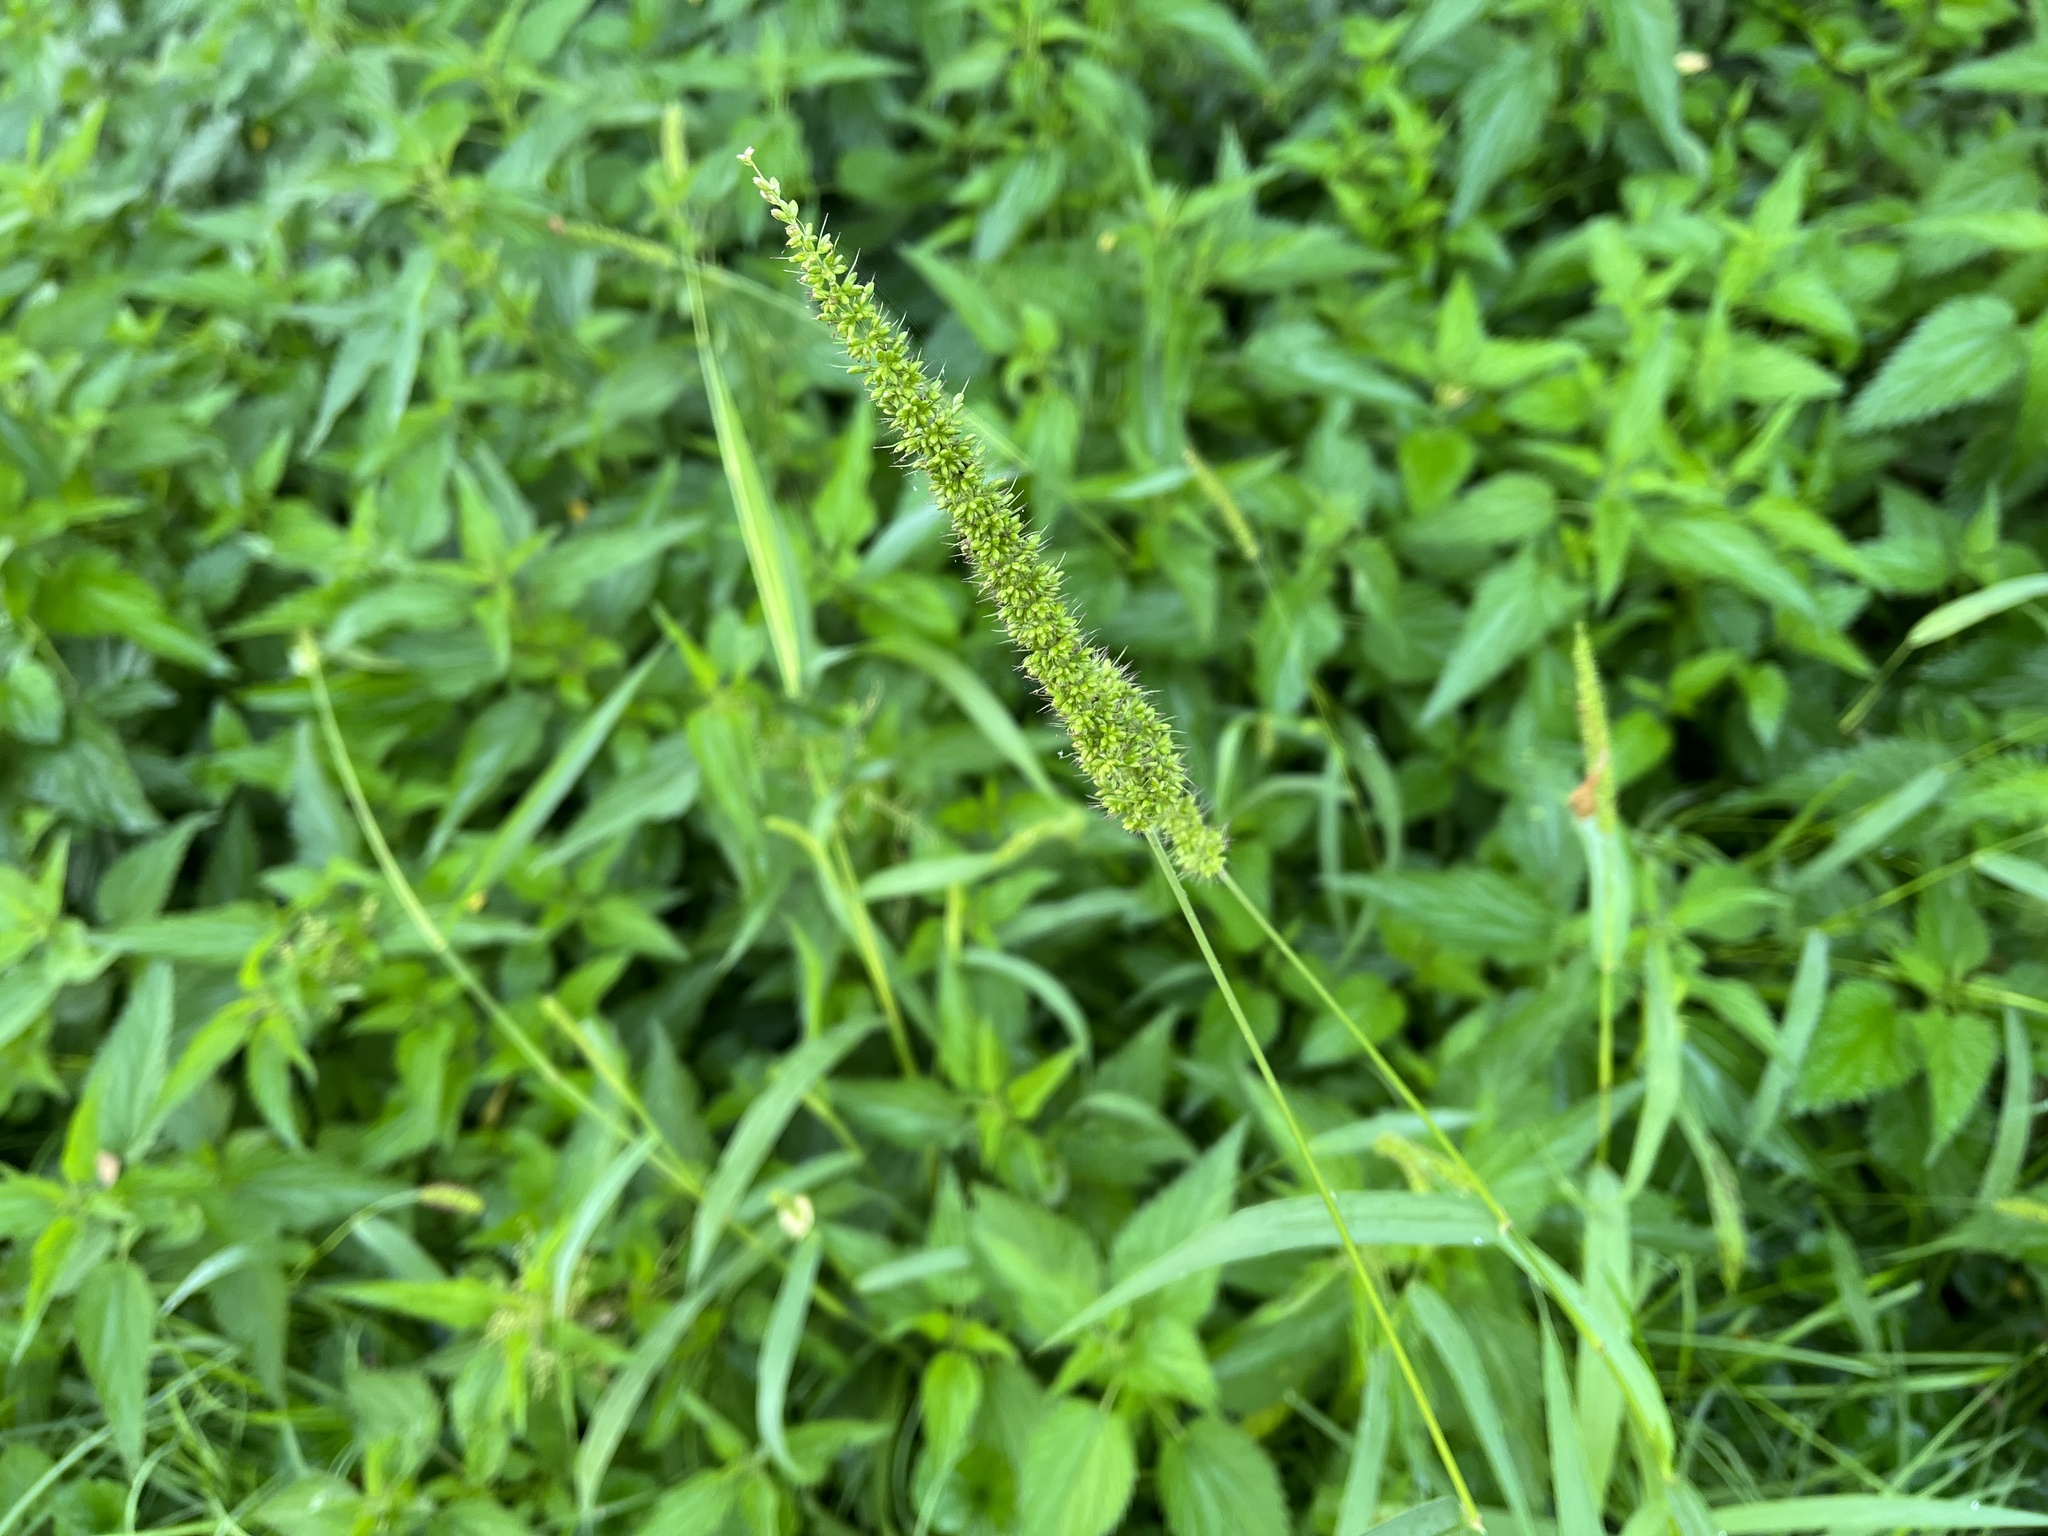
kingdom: Plantae
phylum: Tracheophyta
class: Liliopsida
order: Poales
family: Poaceae
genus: Setaria
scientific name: Setaria verticillata
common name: Hooked bristlegrass
